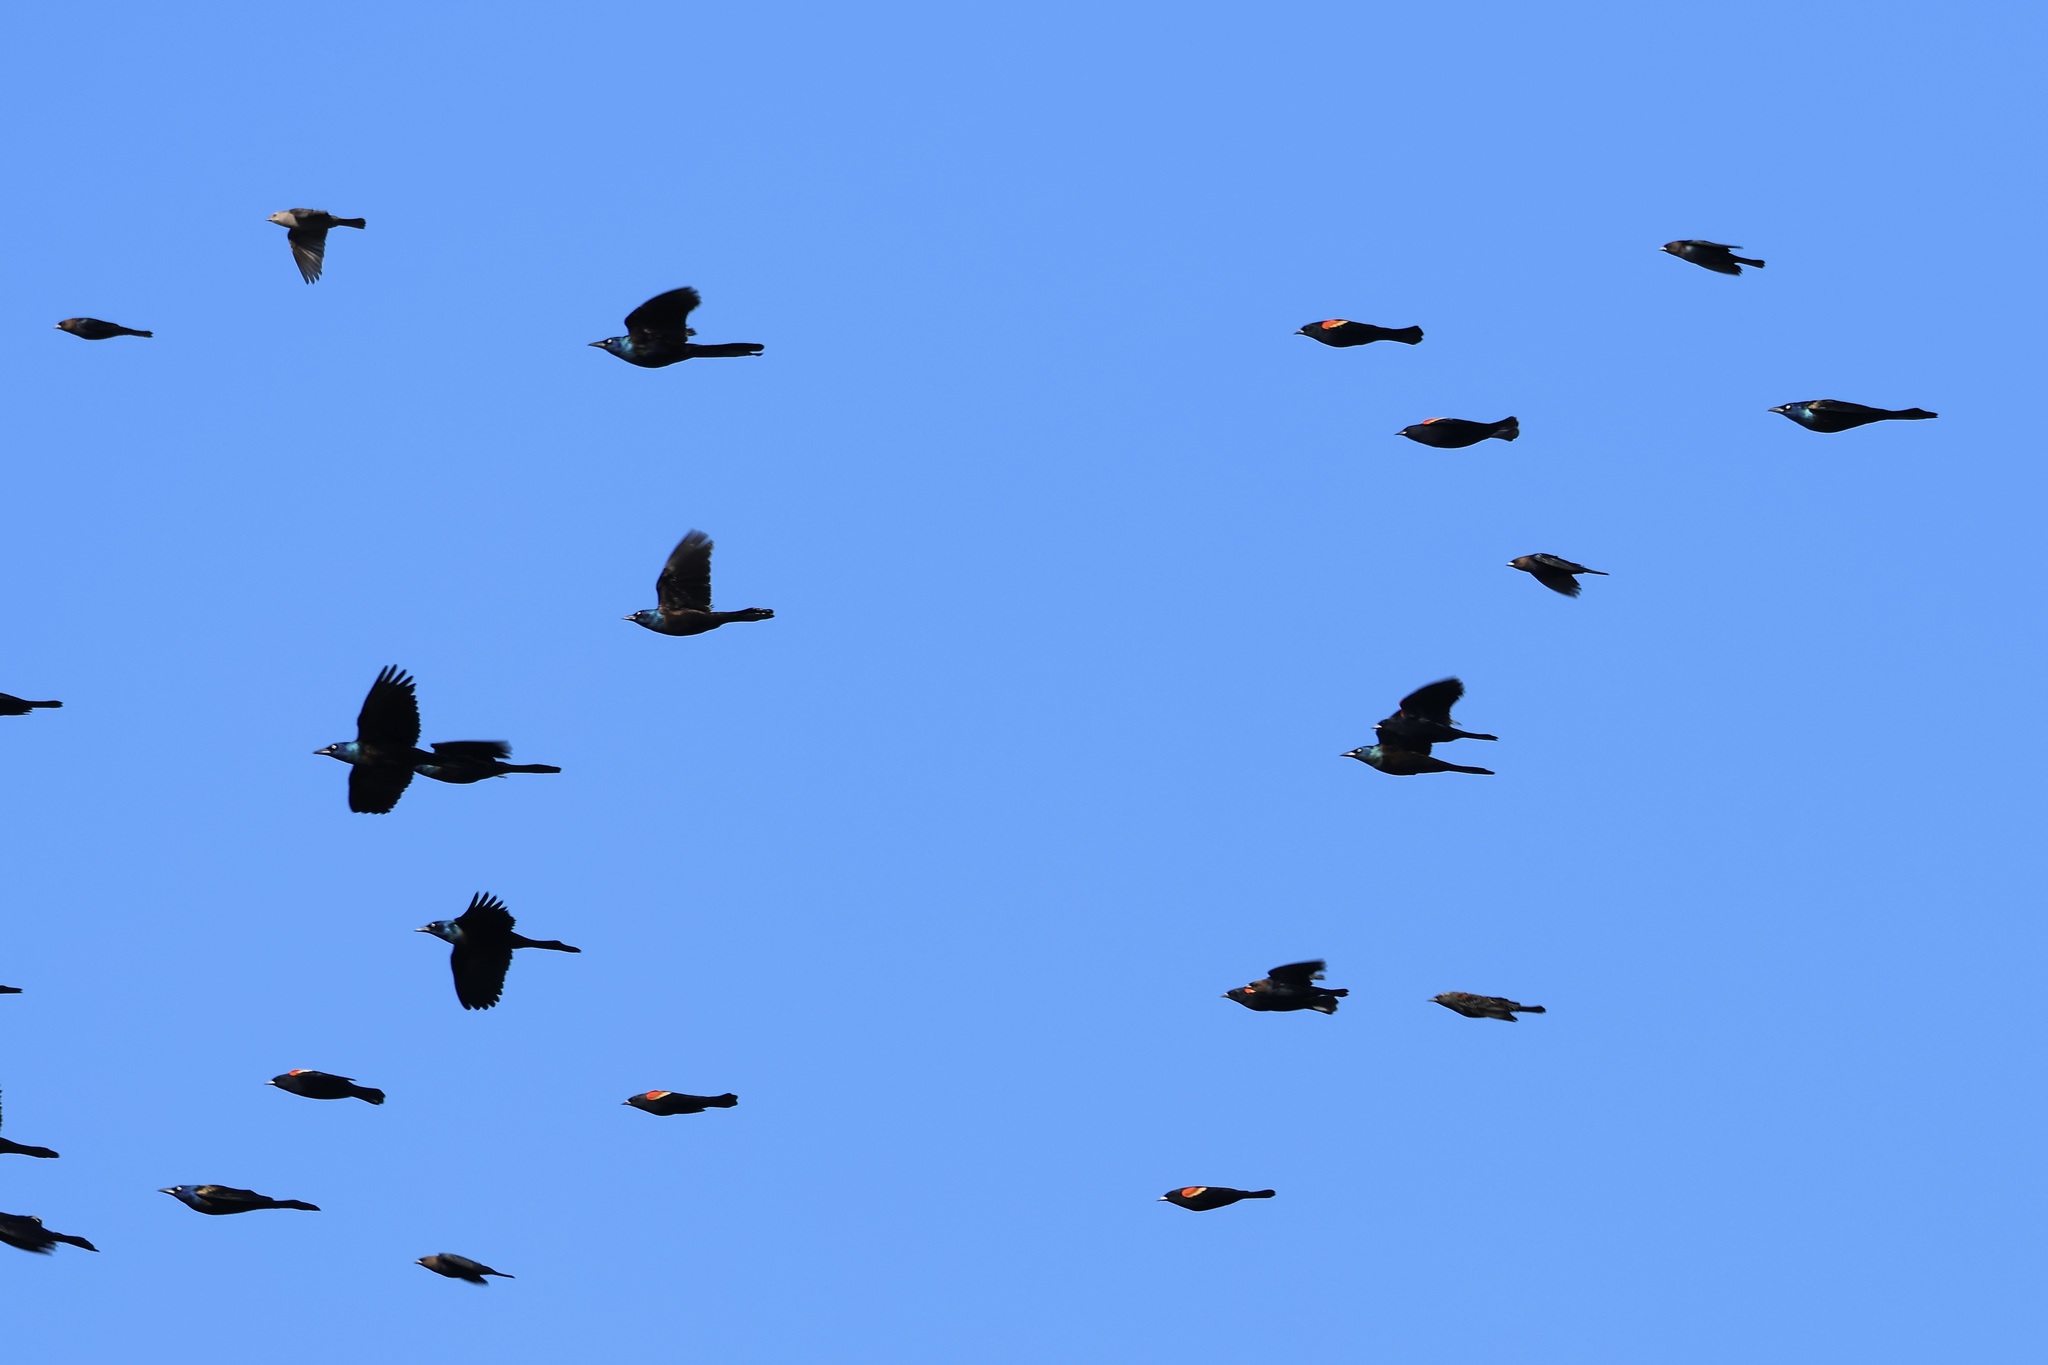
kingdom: Animalia
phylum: Chordata
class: Aves
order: Passeriformes
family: Icteridae
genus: Quiscalus
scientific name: Quiscalus quiscula
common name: Common grackle
